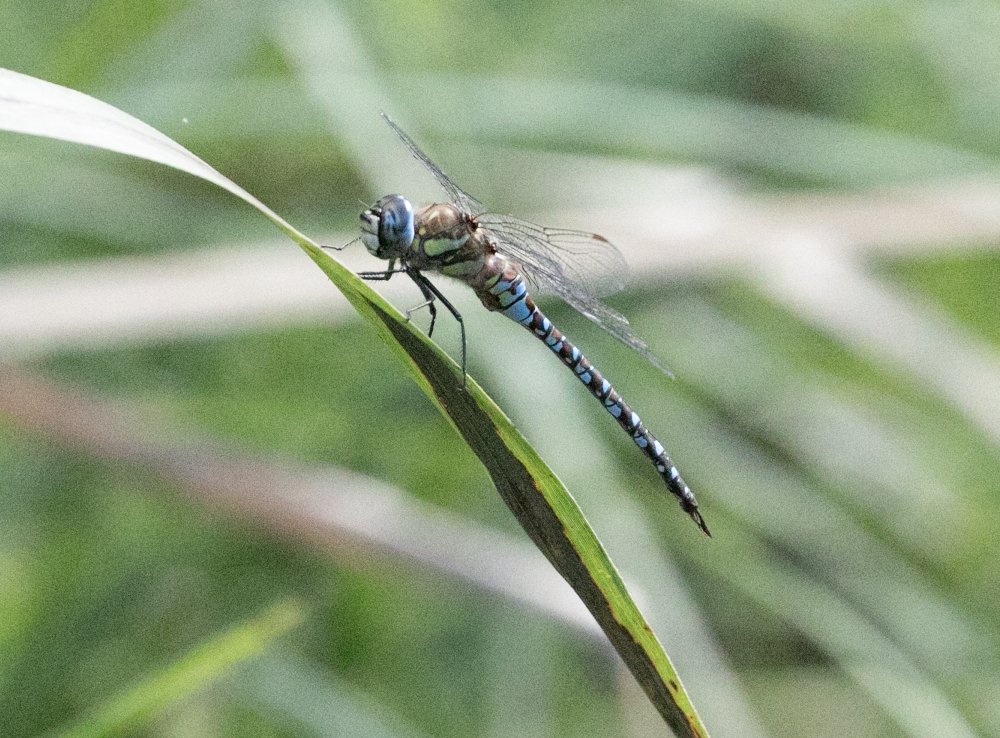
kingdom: Animalia
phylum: Arthropoda
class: Insecta
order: Odonata
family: Aeshnidae
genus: Aeshna
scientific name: Aeshna mixta
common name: Migrant hawker
